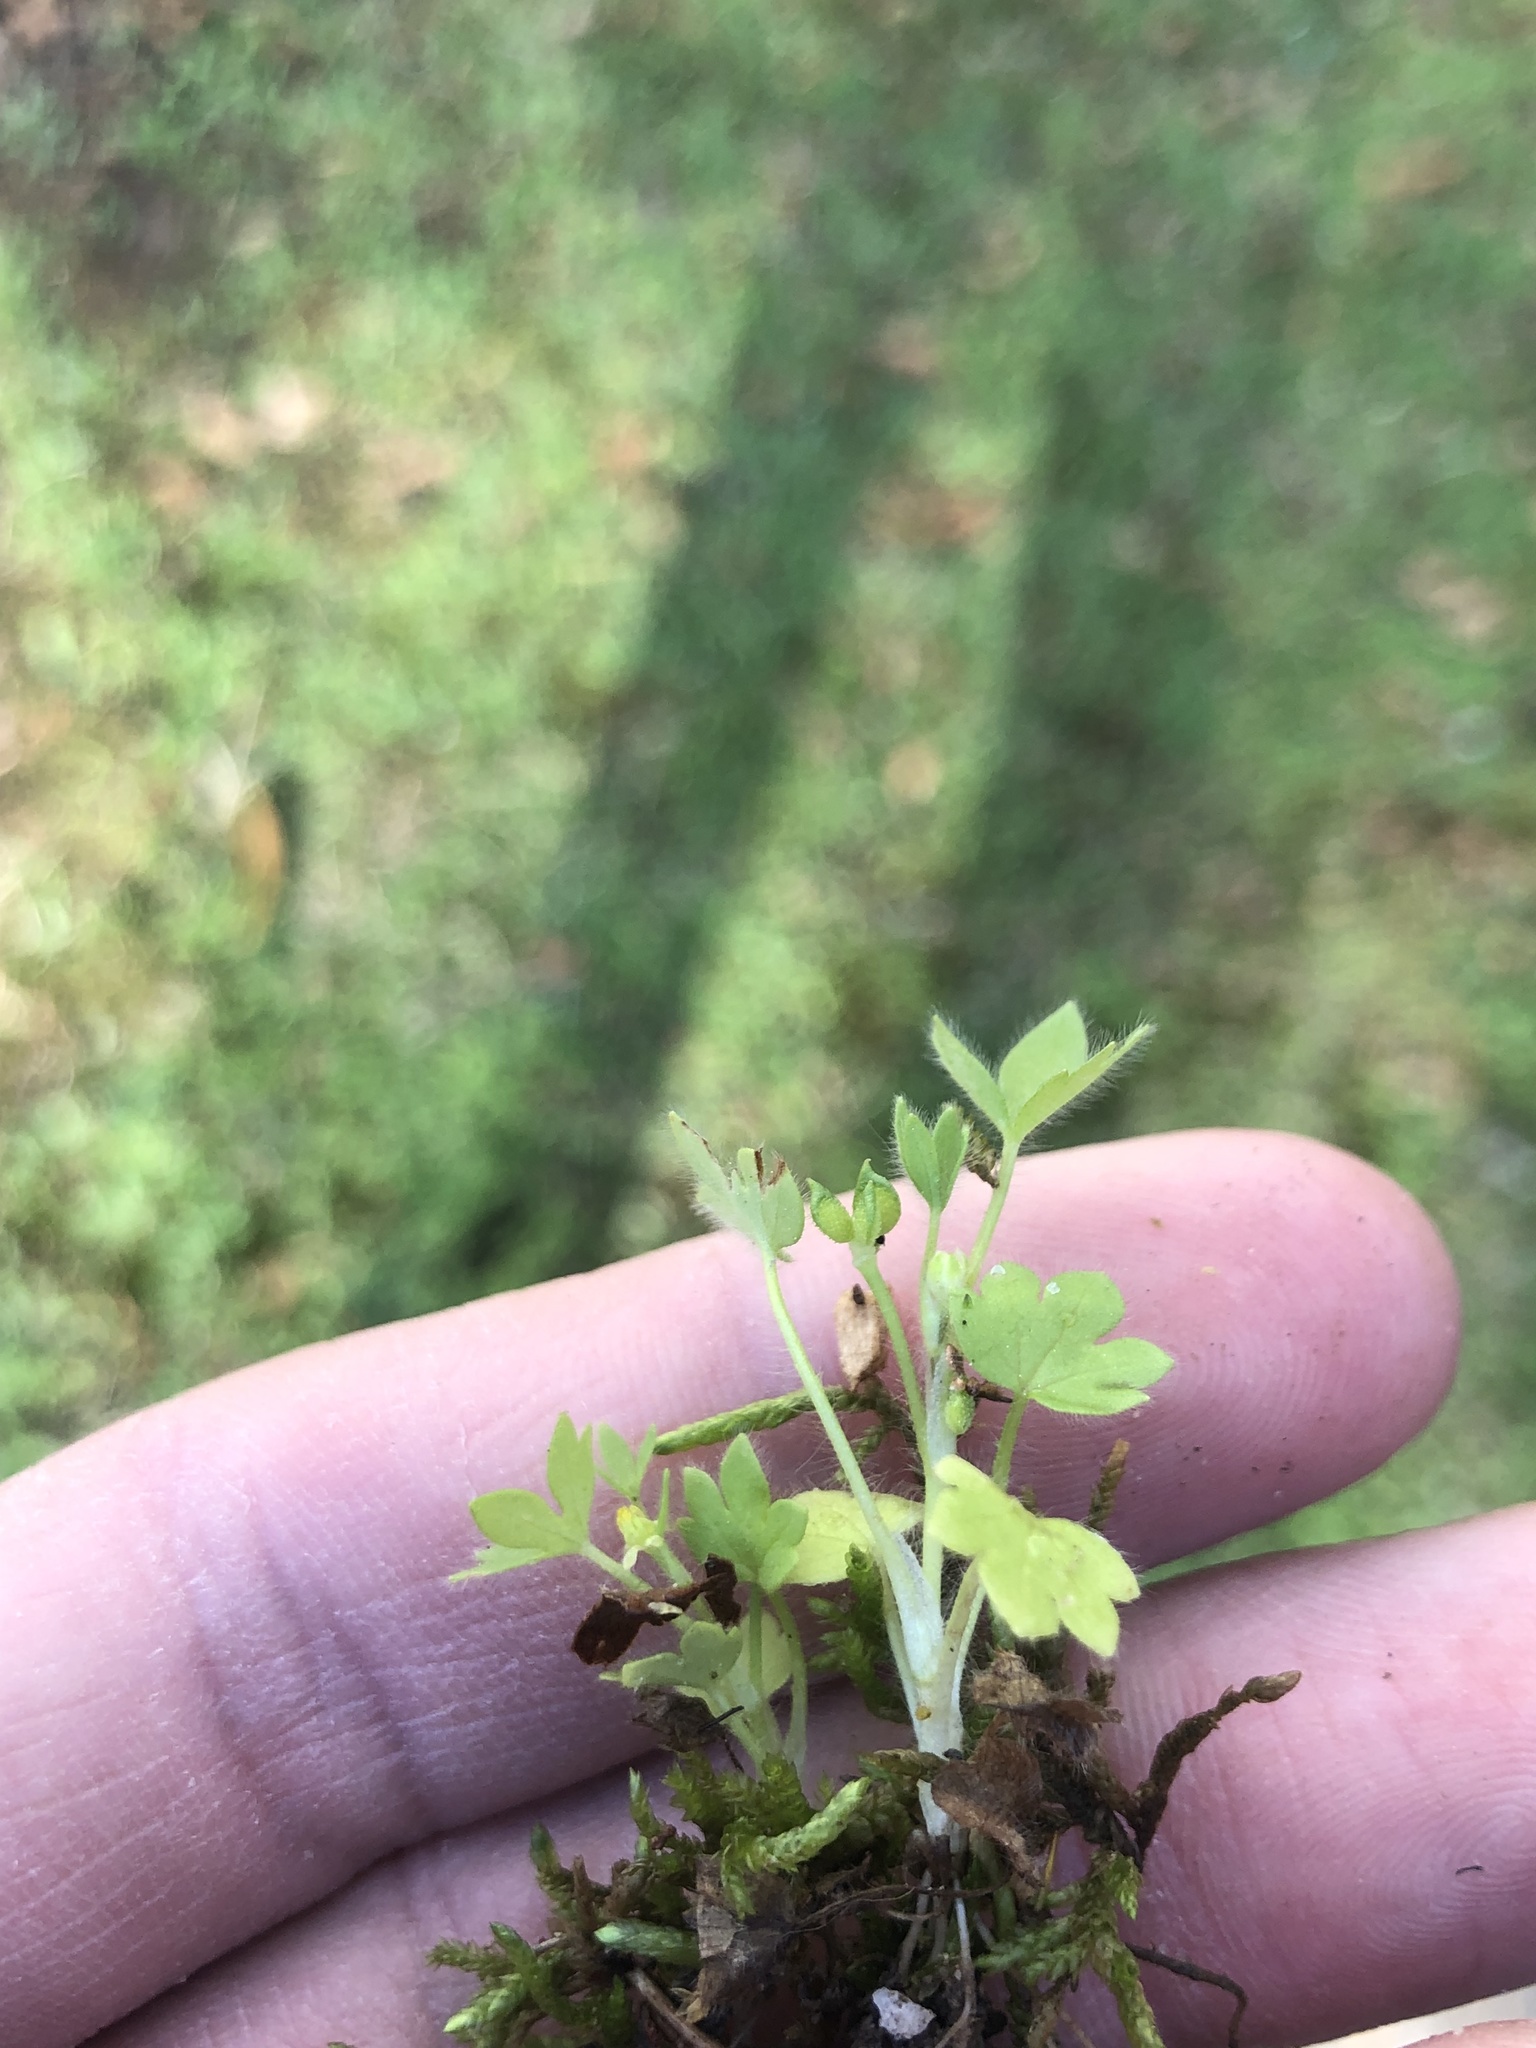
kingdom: Plantae
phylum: Tracheophyta
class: Magnoliopsida
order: Ranunculales
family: Ranunculaceae
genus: Ranunculus
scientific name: Ranunculus parviflorus
